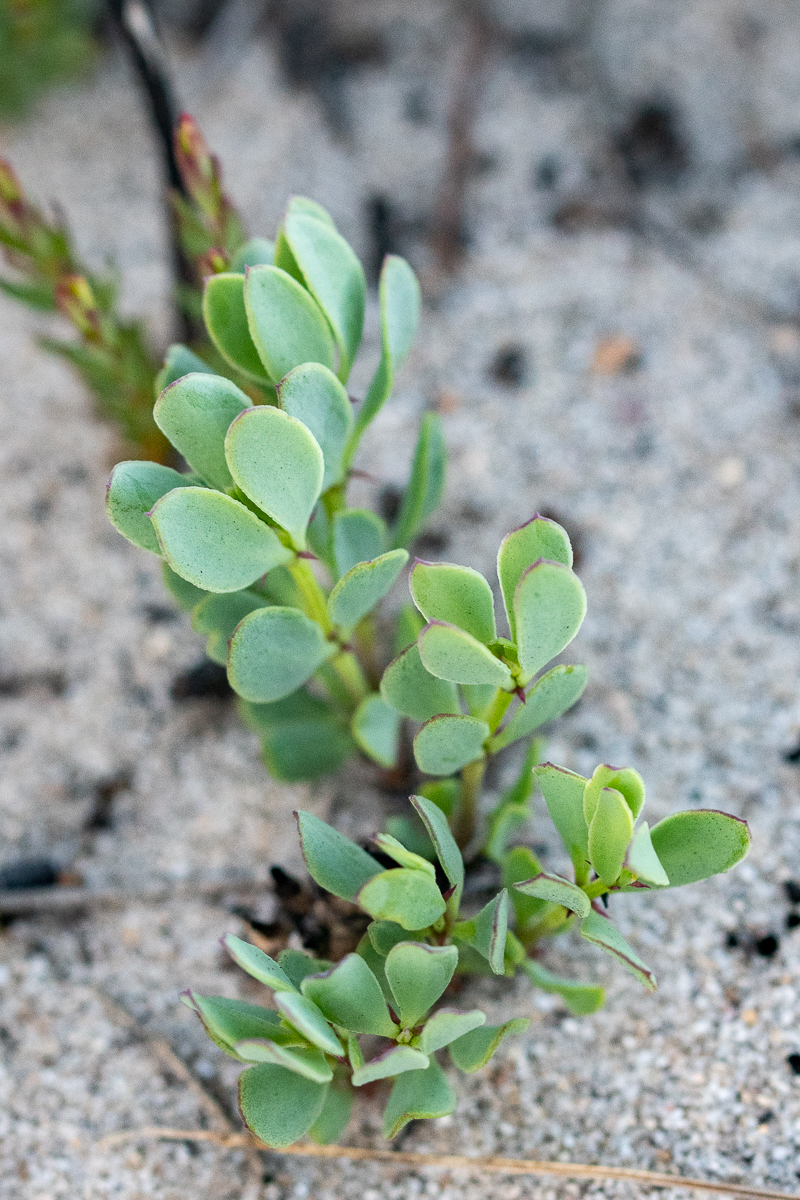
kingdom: Plantae
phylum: Tracheophyta
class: Magnoliopsida
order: Zygophyllales
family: Zygophyllaceae
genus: Roepera
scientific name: Roepera fulva
